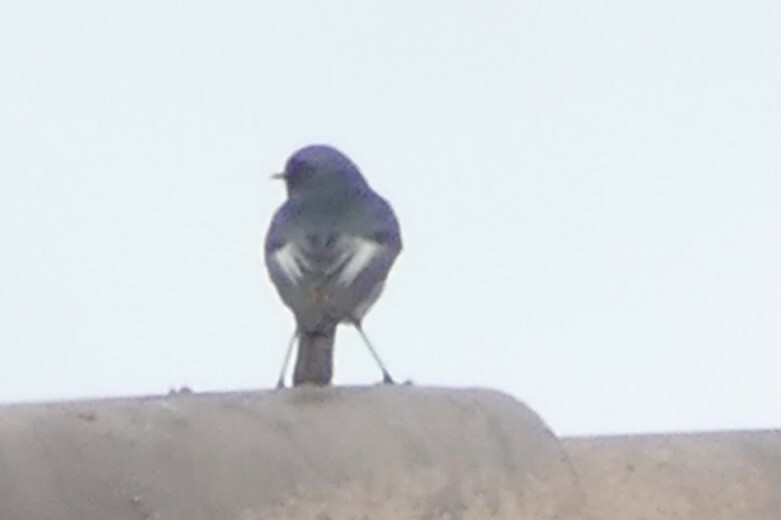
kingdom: Animalia
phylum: Chordata
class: Aves
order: Passeriformes
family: Muscicapidae
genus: Phoenicurus
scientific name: Phoenicurus ochruros
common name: Black redstart
